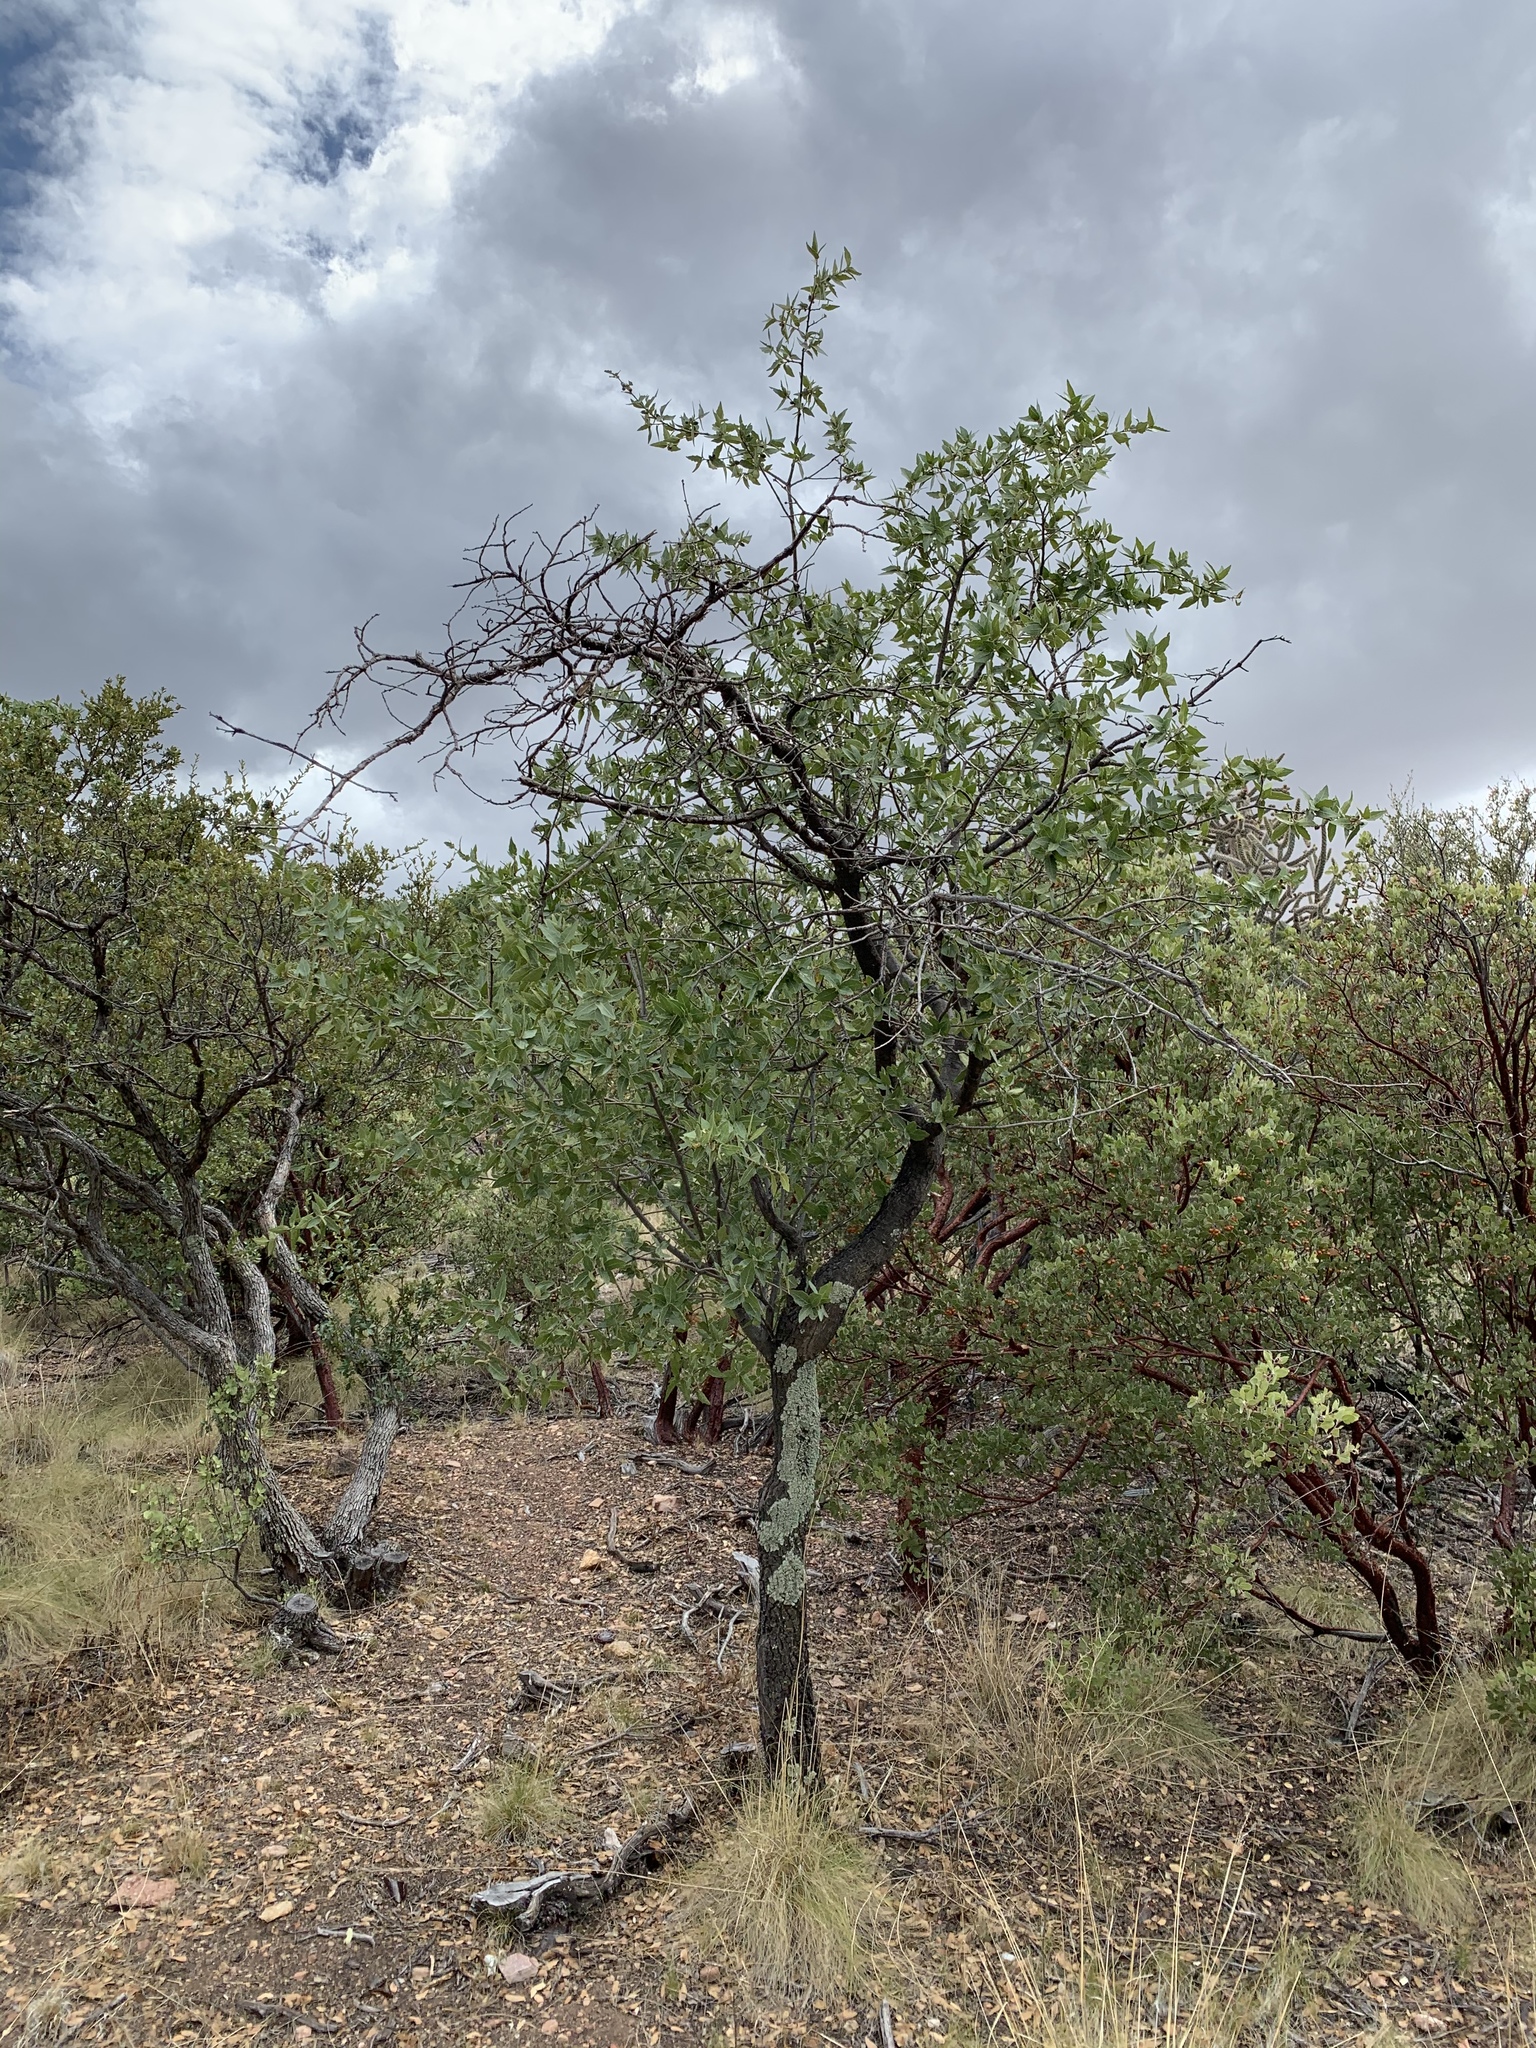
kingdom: Plantae
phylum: Tracheophyta
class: Magnoliopsida
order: Fagales
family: Fagaceae
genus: Quercus
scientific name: Quercus emoryi
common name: Emory oak
